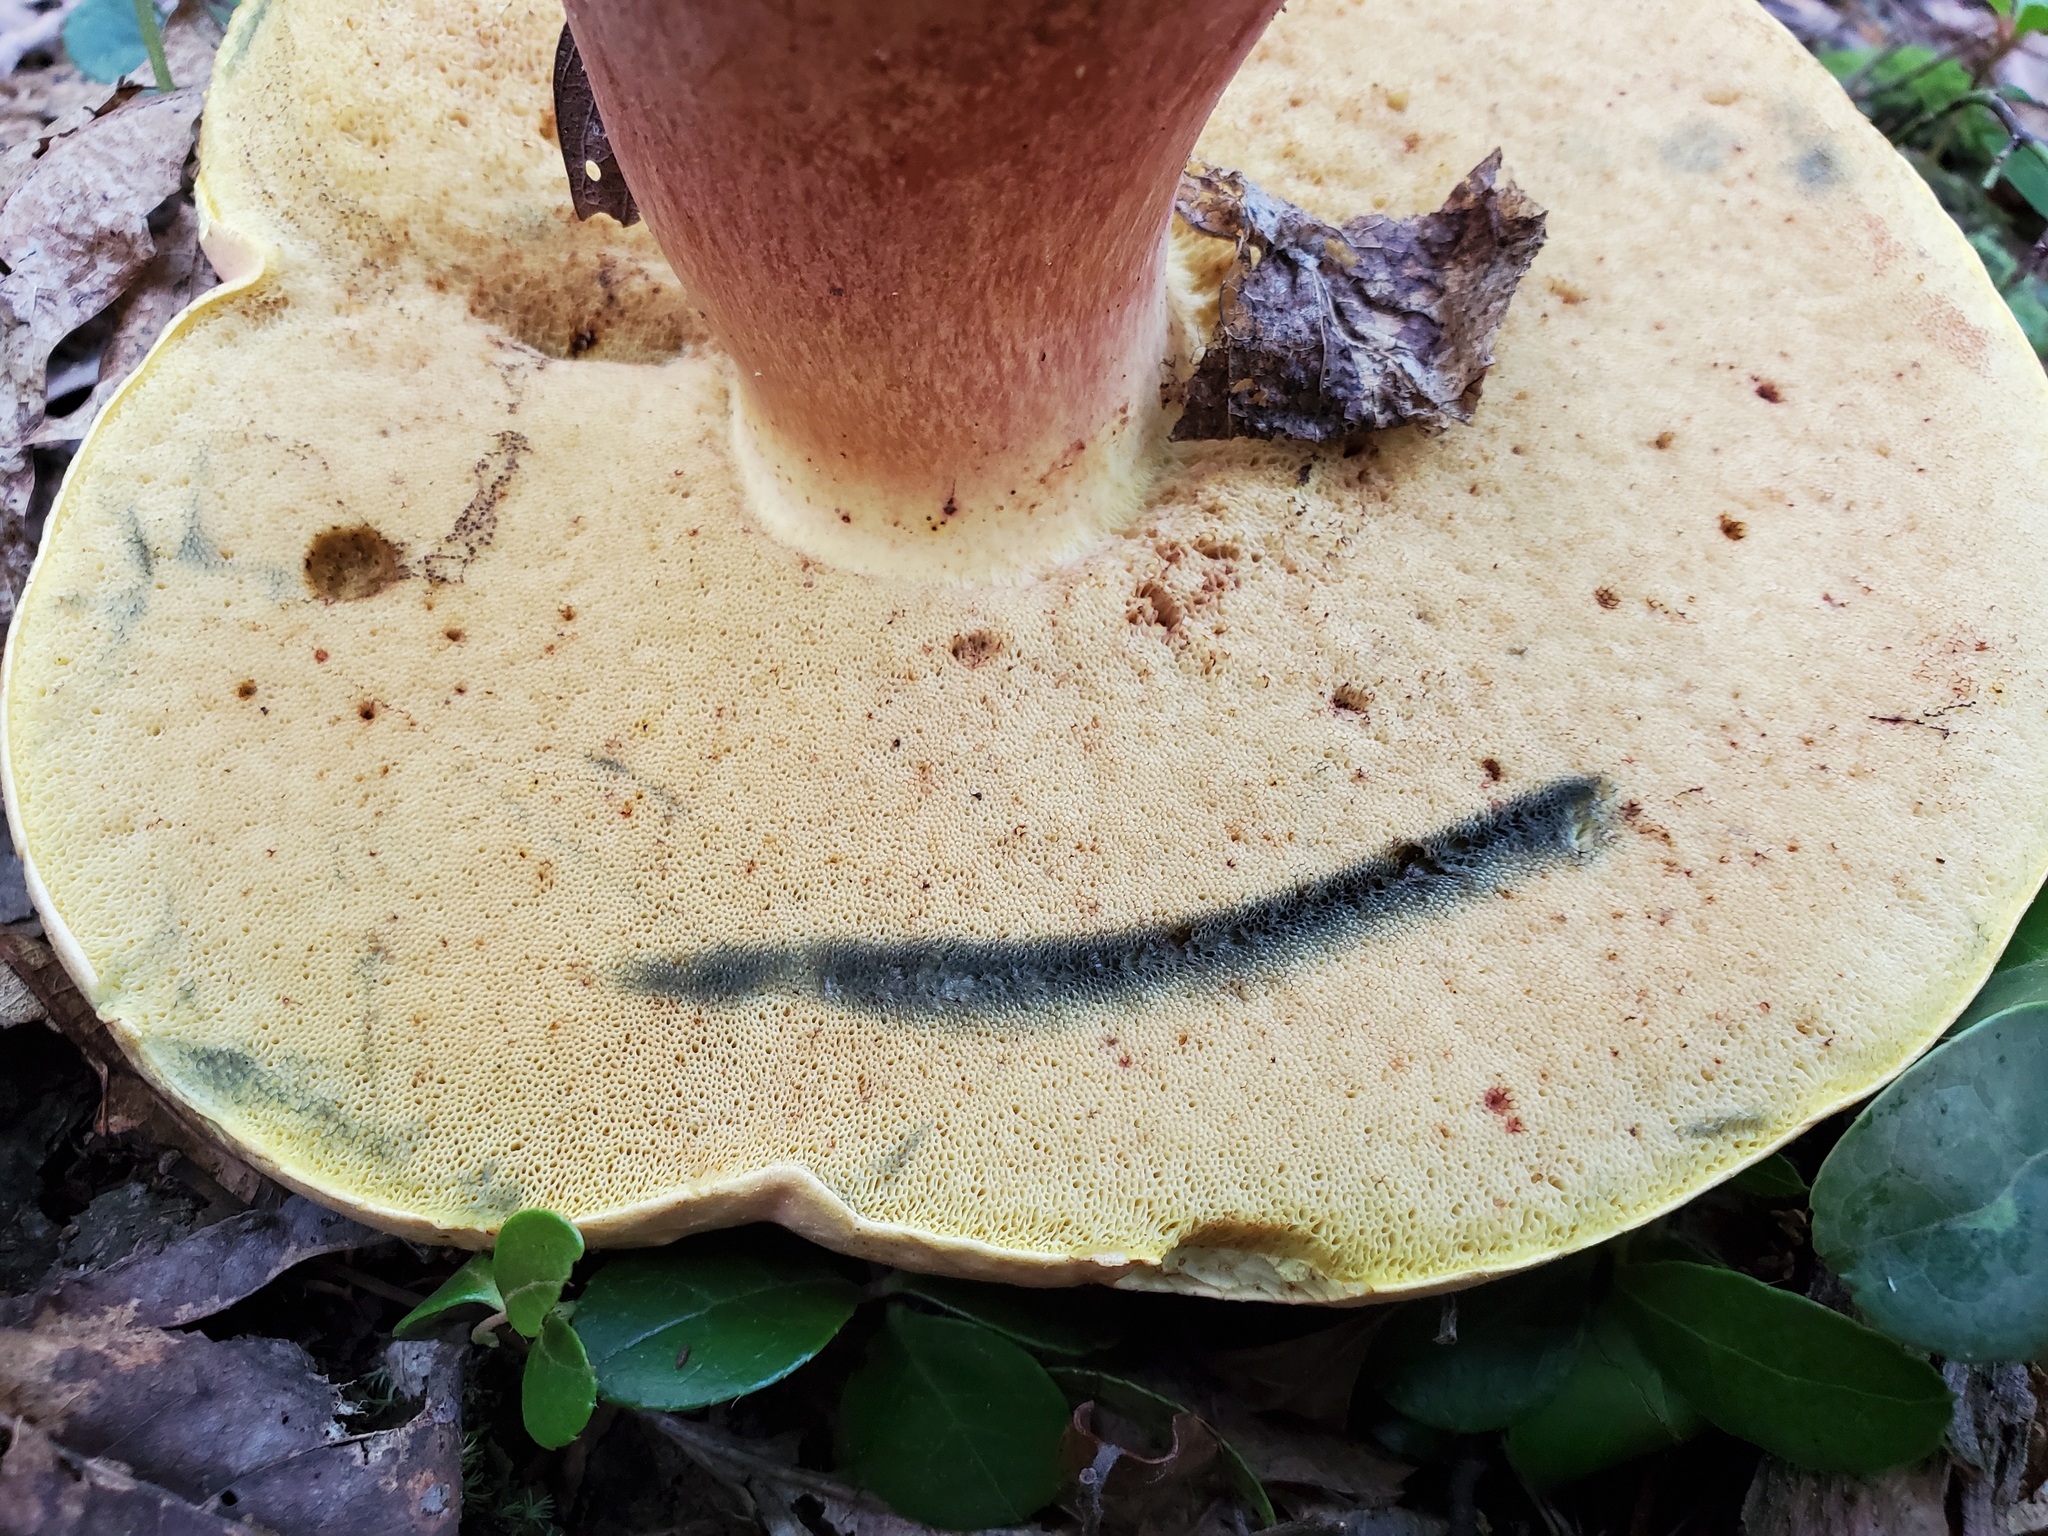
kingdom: Fungi
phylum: Basidiomycota
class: Agaricomycetes
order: Boletales
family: Boletaceae
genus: Baorangia
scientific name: Baorangia bicolor
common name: Two-colored bolete
